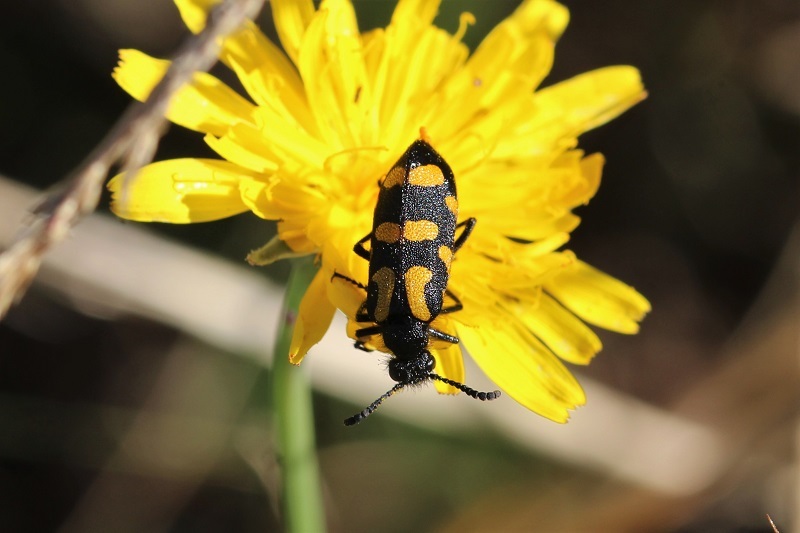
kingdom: Animalia
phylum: Arthropoda
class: Insecta
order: Coleoptera
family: Meloidae
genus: Ceroctis
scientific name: Ceroctis capensis
